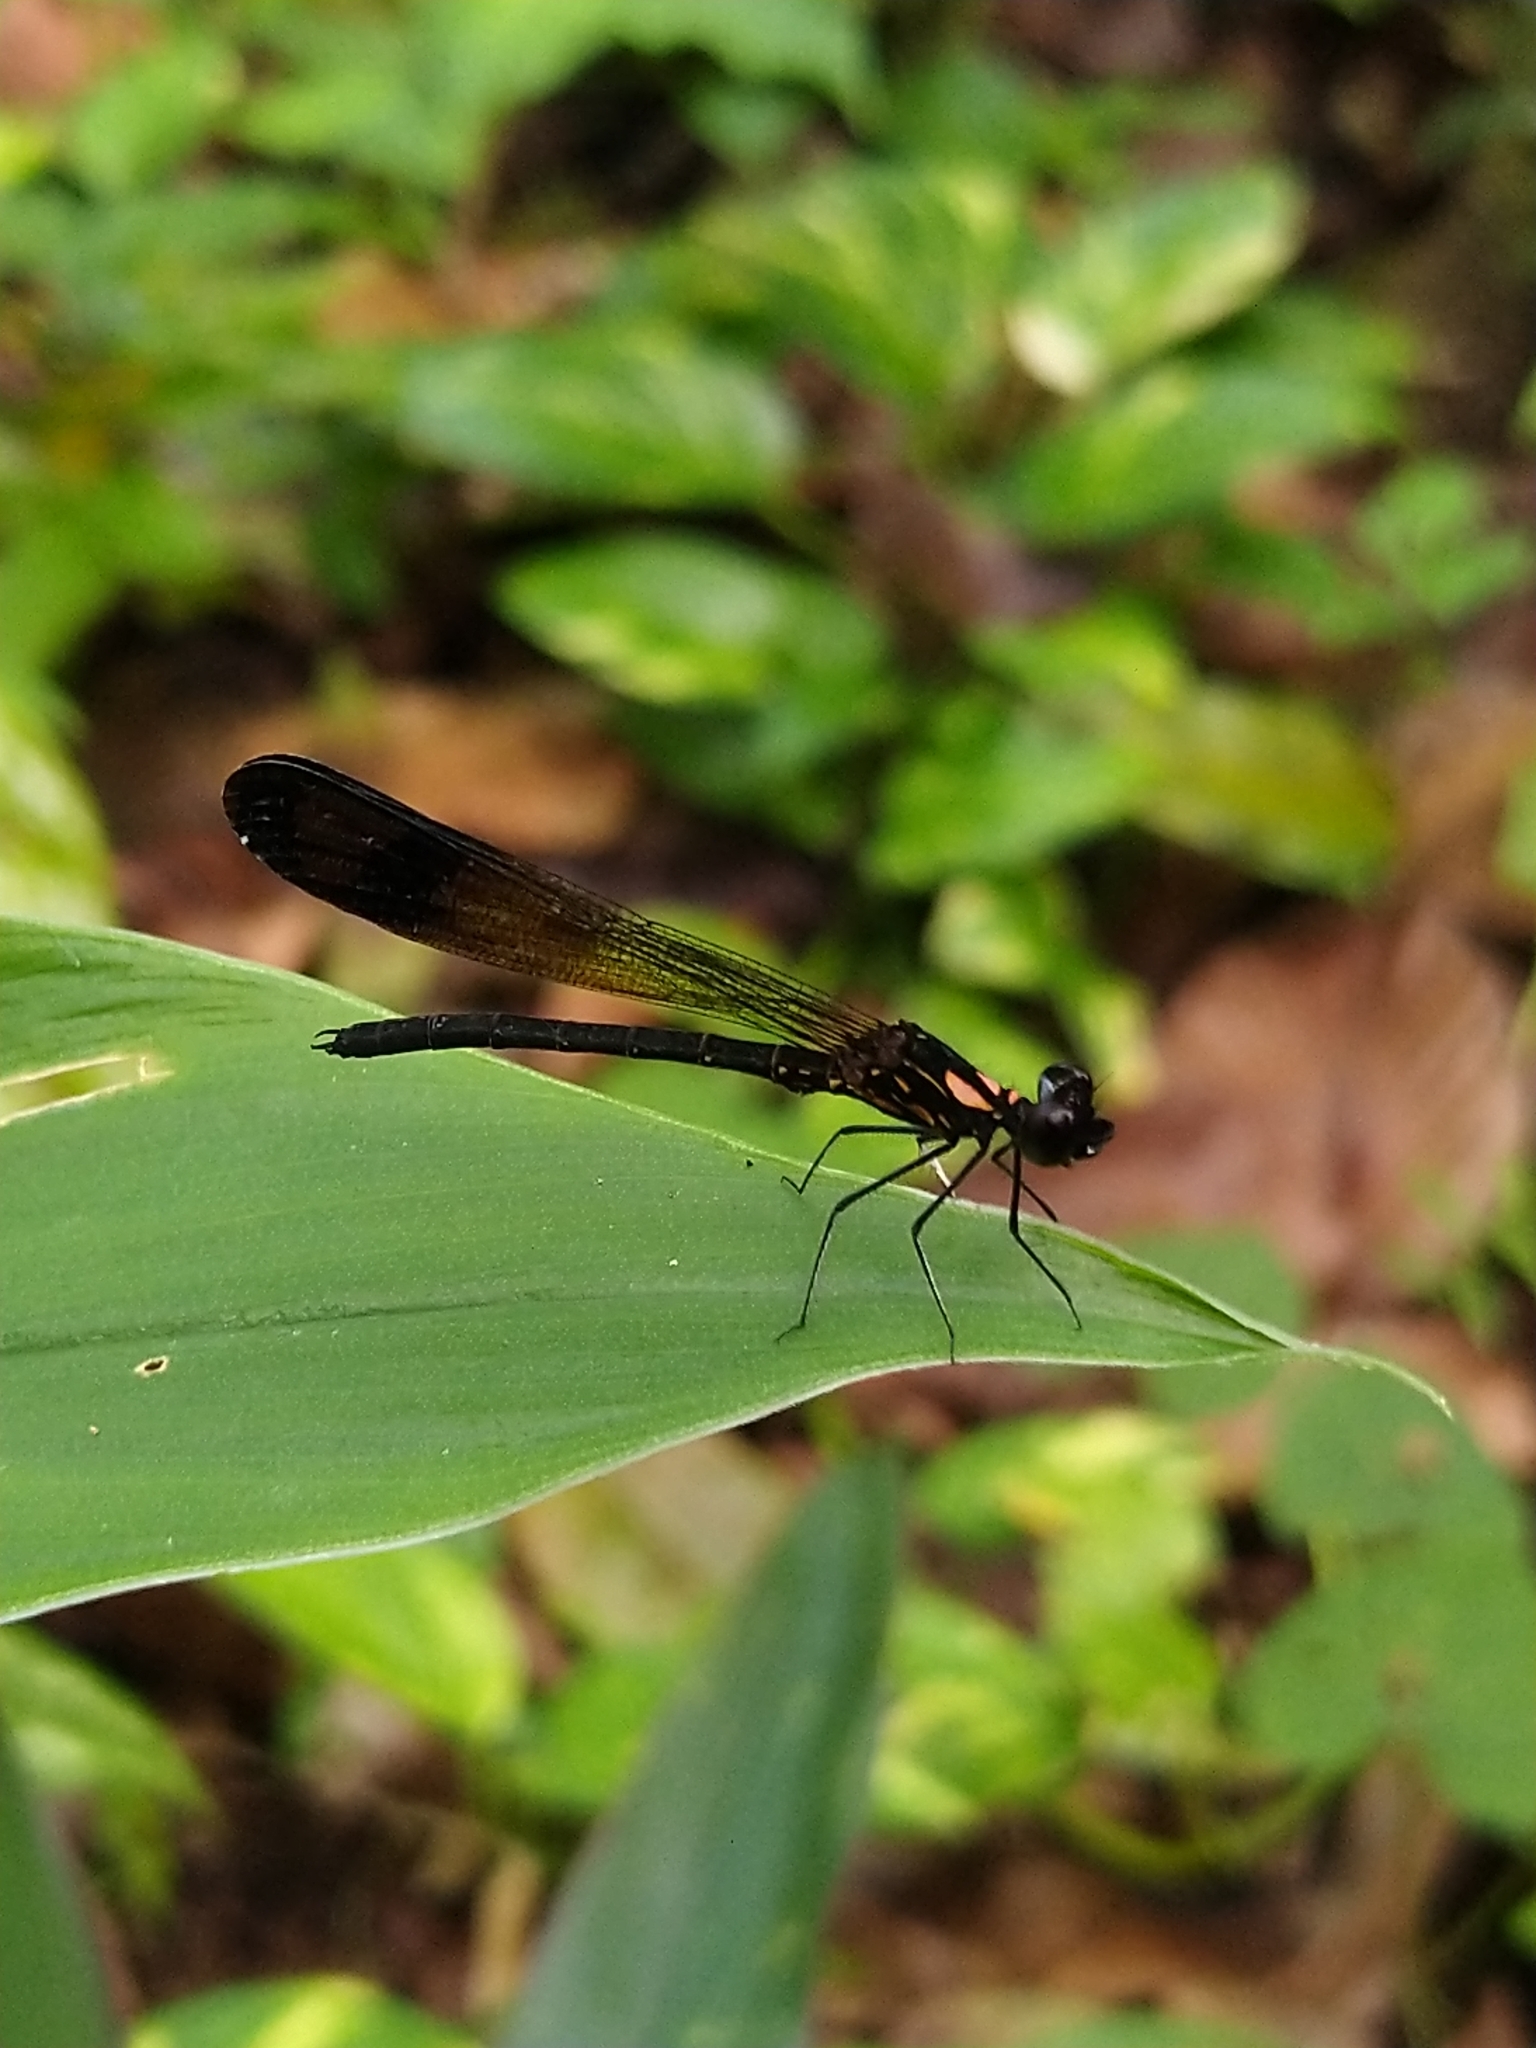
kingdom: Animalia
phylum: Arthropoda
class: Insecta
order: Odonata
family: Chlorocyphidae
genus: Heliocypha
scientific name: Heliocypha bisignata
